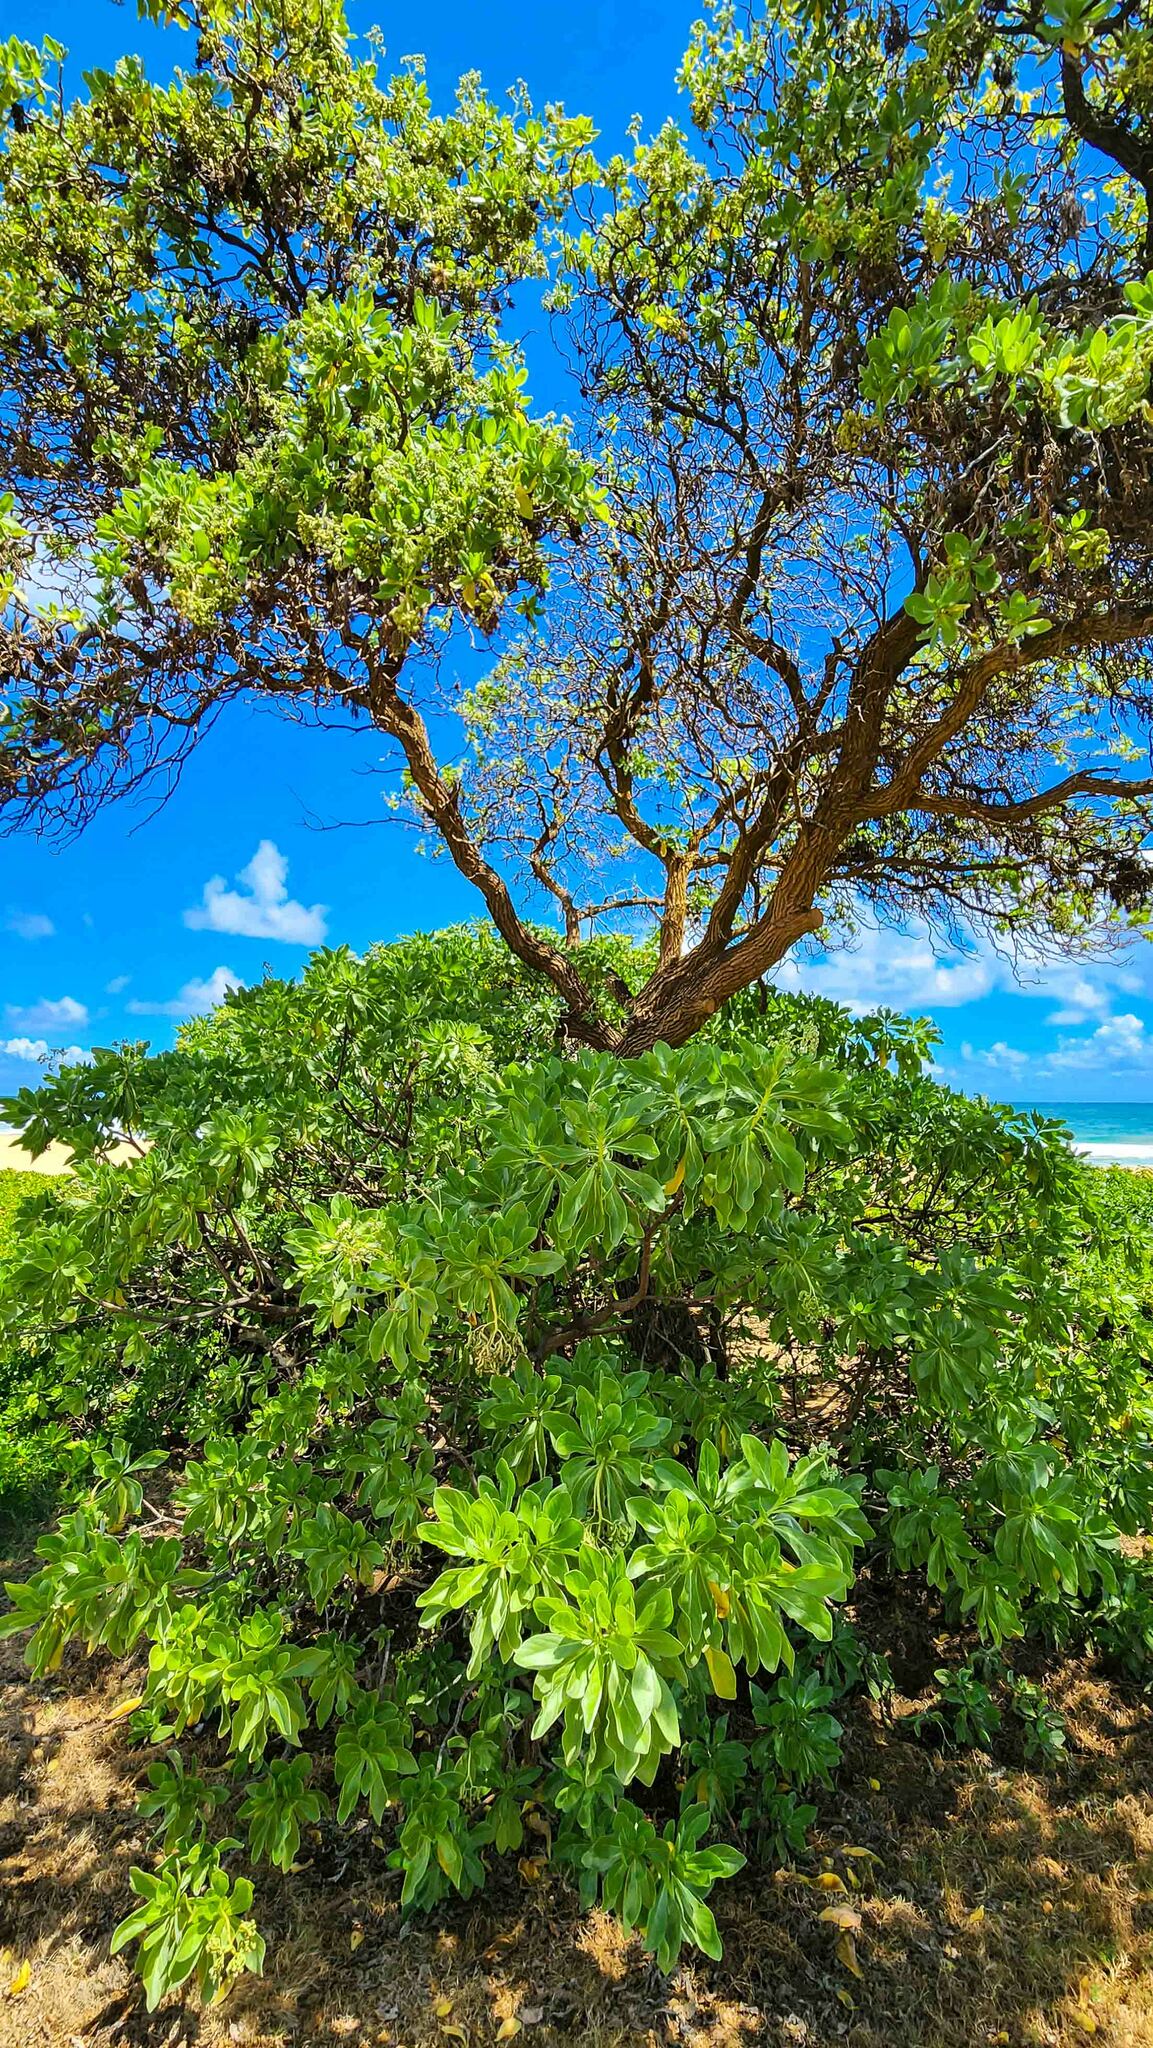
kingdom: Plantae
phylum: Tracheophyta
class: Magnoliopsida
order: Boraginales
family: Heliotropiaceae
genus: Heliotropium
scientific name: Heliotropium velutinum
